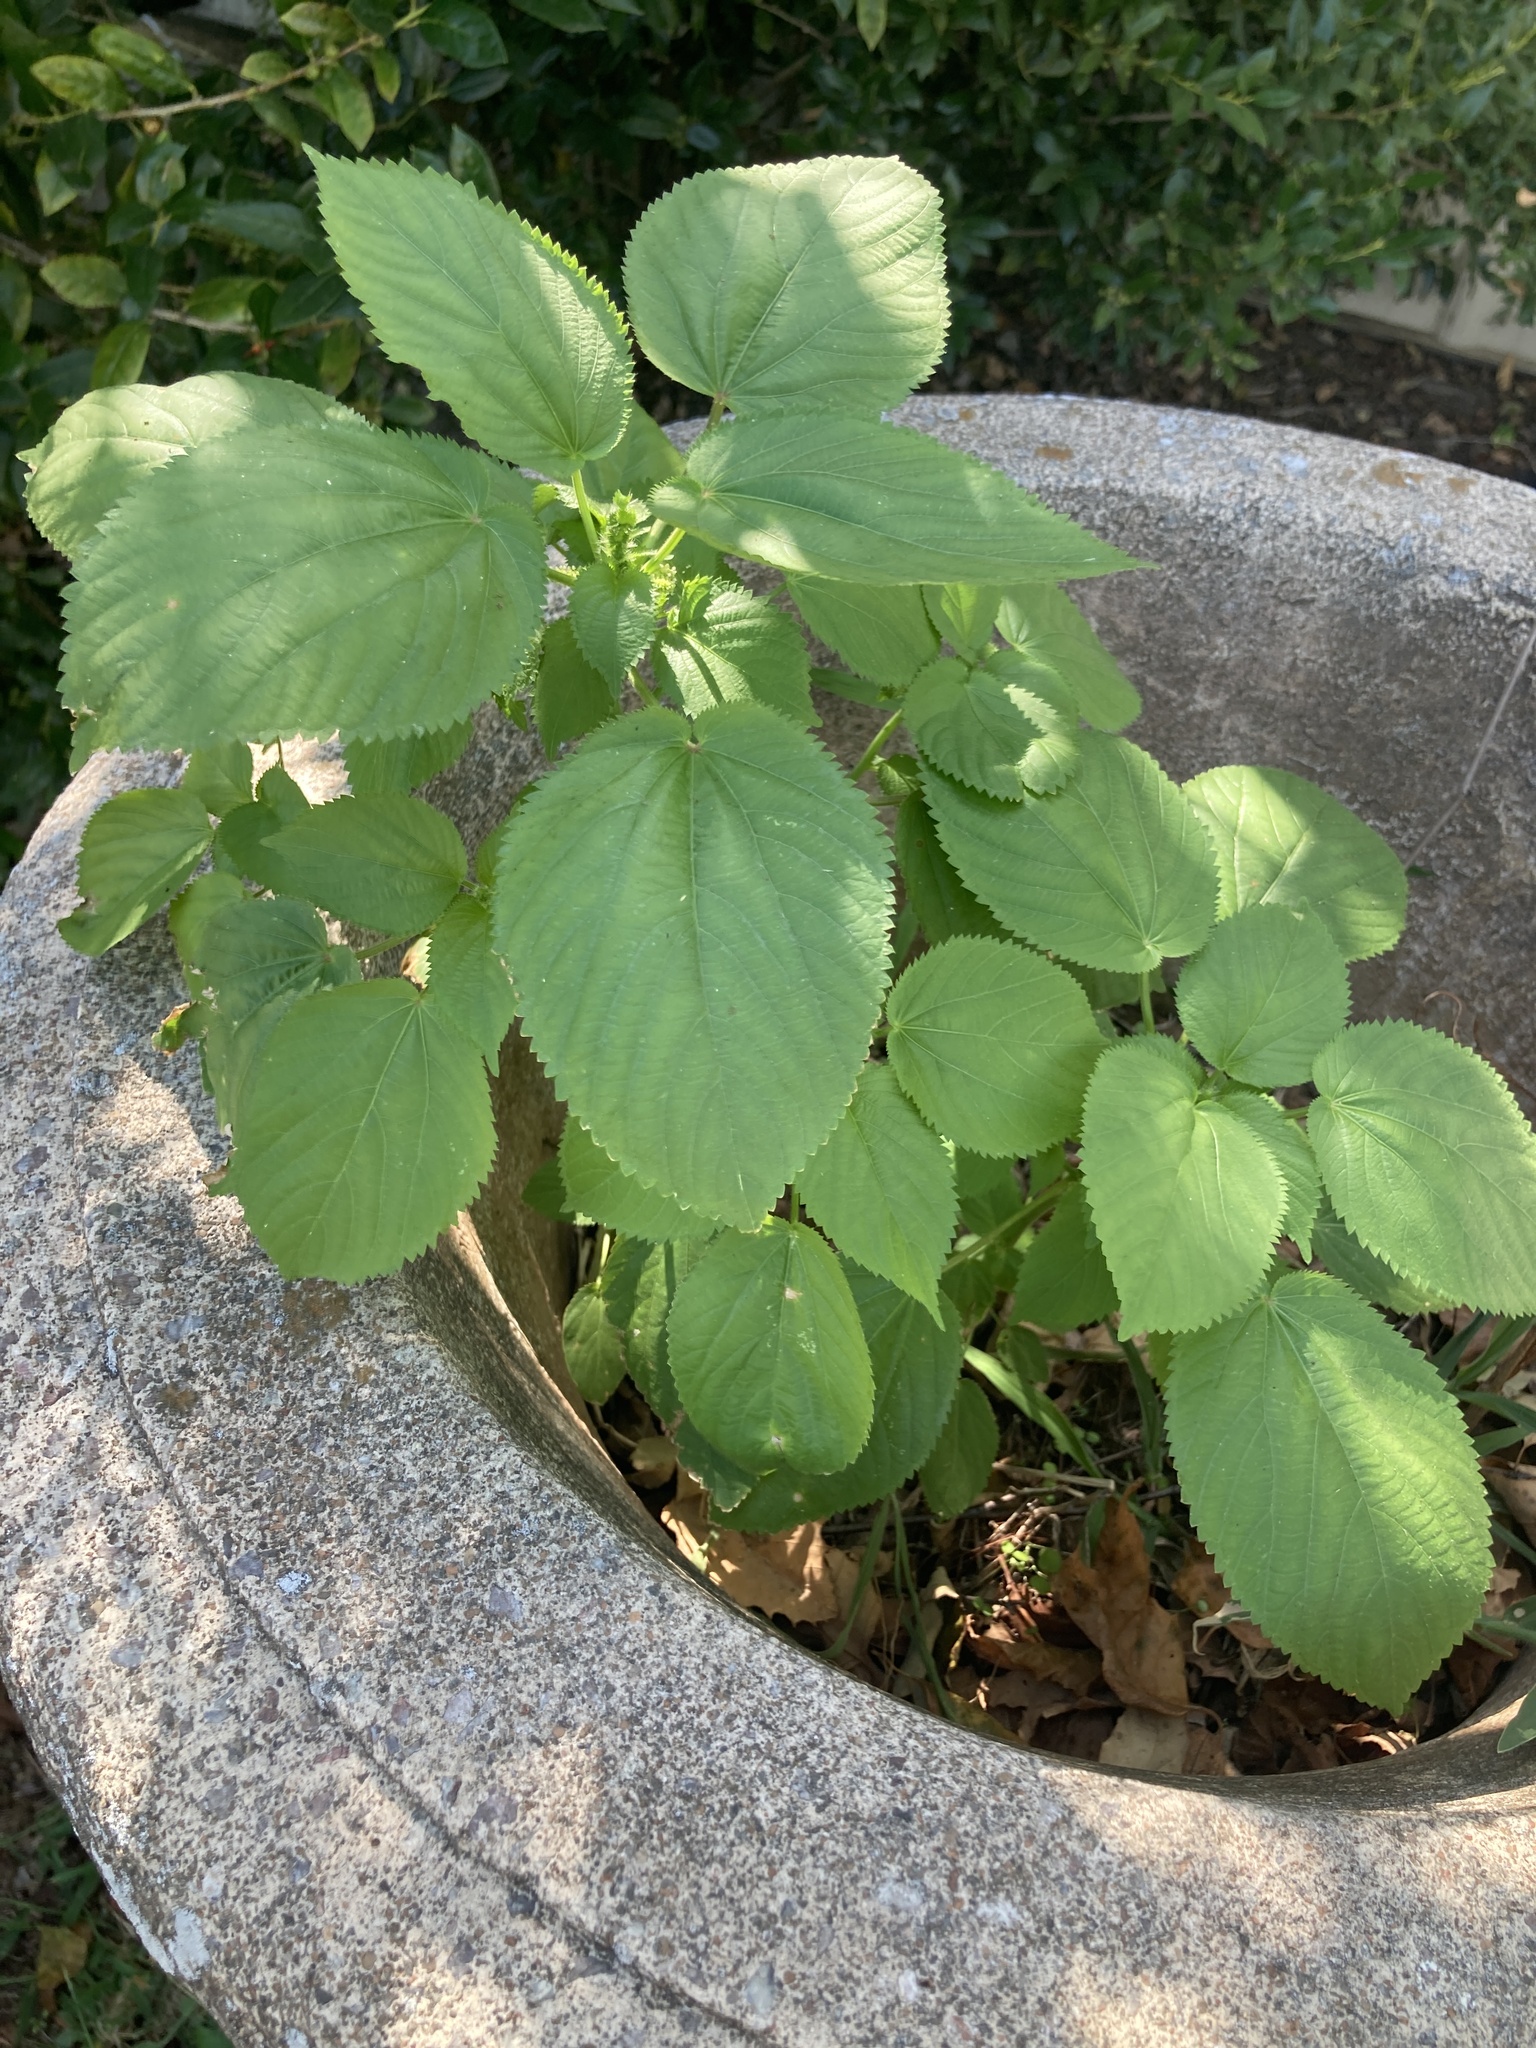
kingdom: Plantae
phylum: Tracheophyta
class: Magnoliopsida
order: Malpighiales
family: Euphorbiaceae
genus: Acalypha
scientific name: Acalypha ostryifolia
